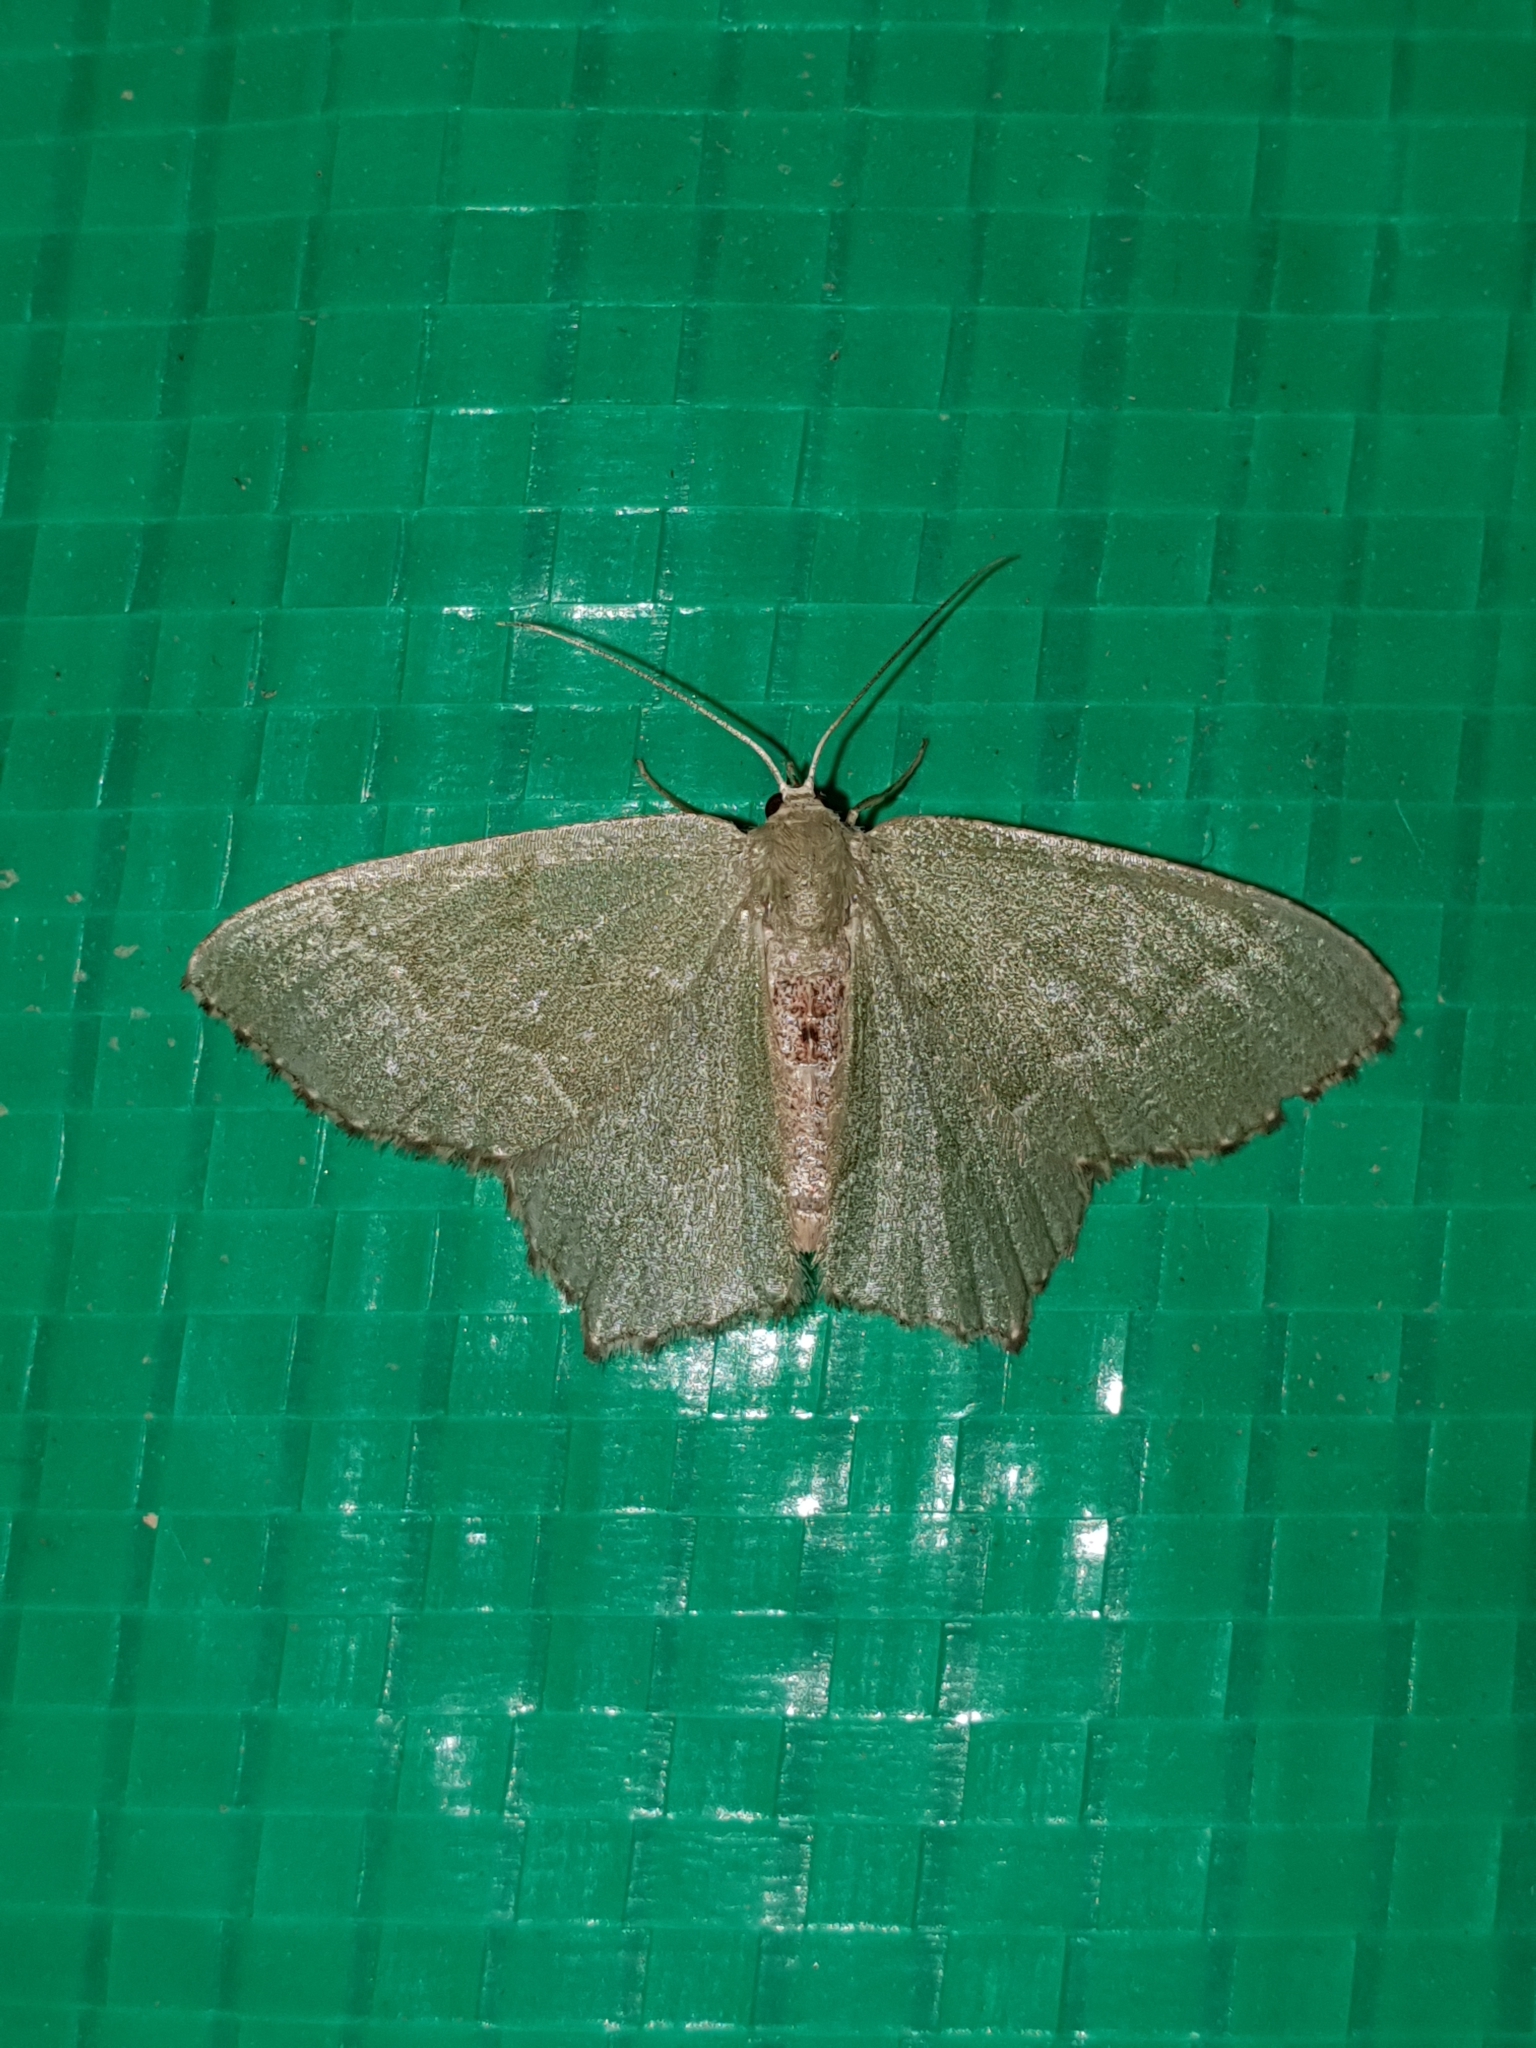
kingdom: Animalia
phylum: Arthropoda
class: Insecta
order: Lepidoptera
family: Geometridae
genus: Hemithea
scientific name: Hemithea aestivaria
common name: Common emerald
